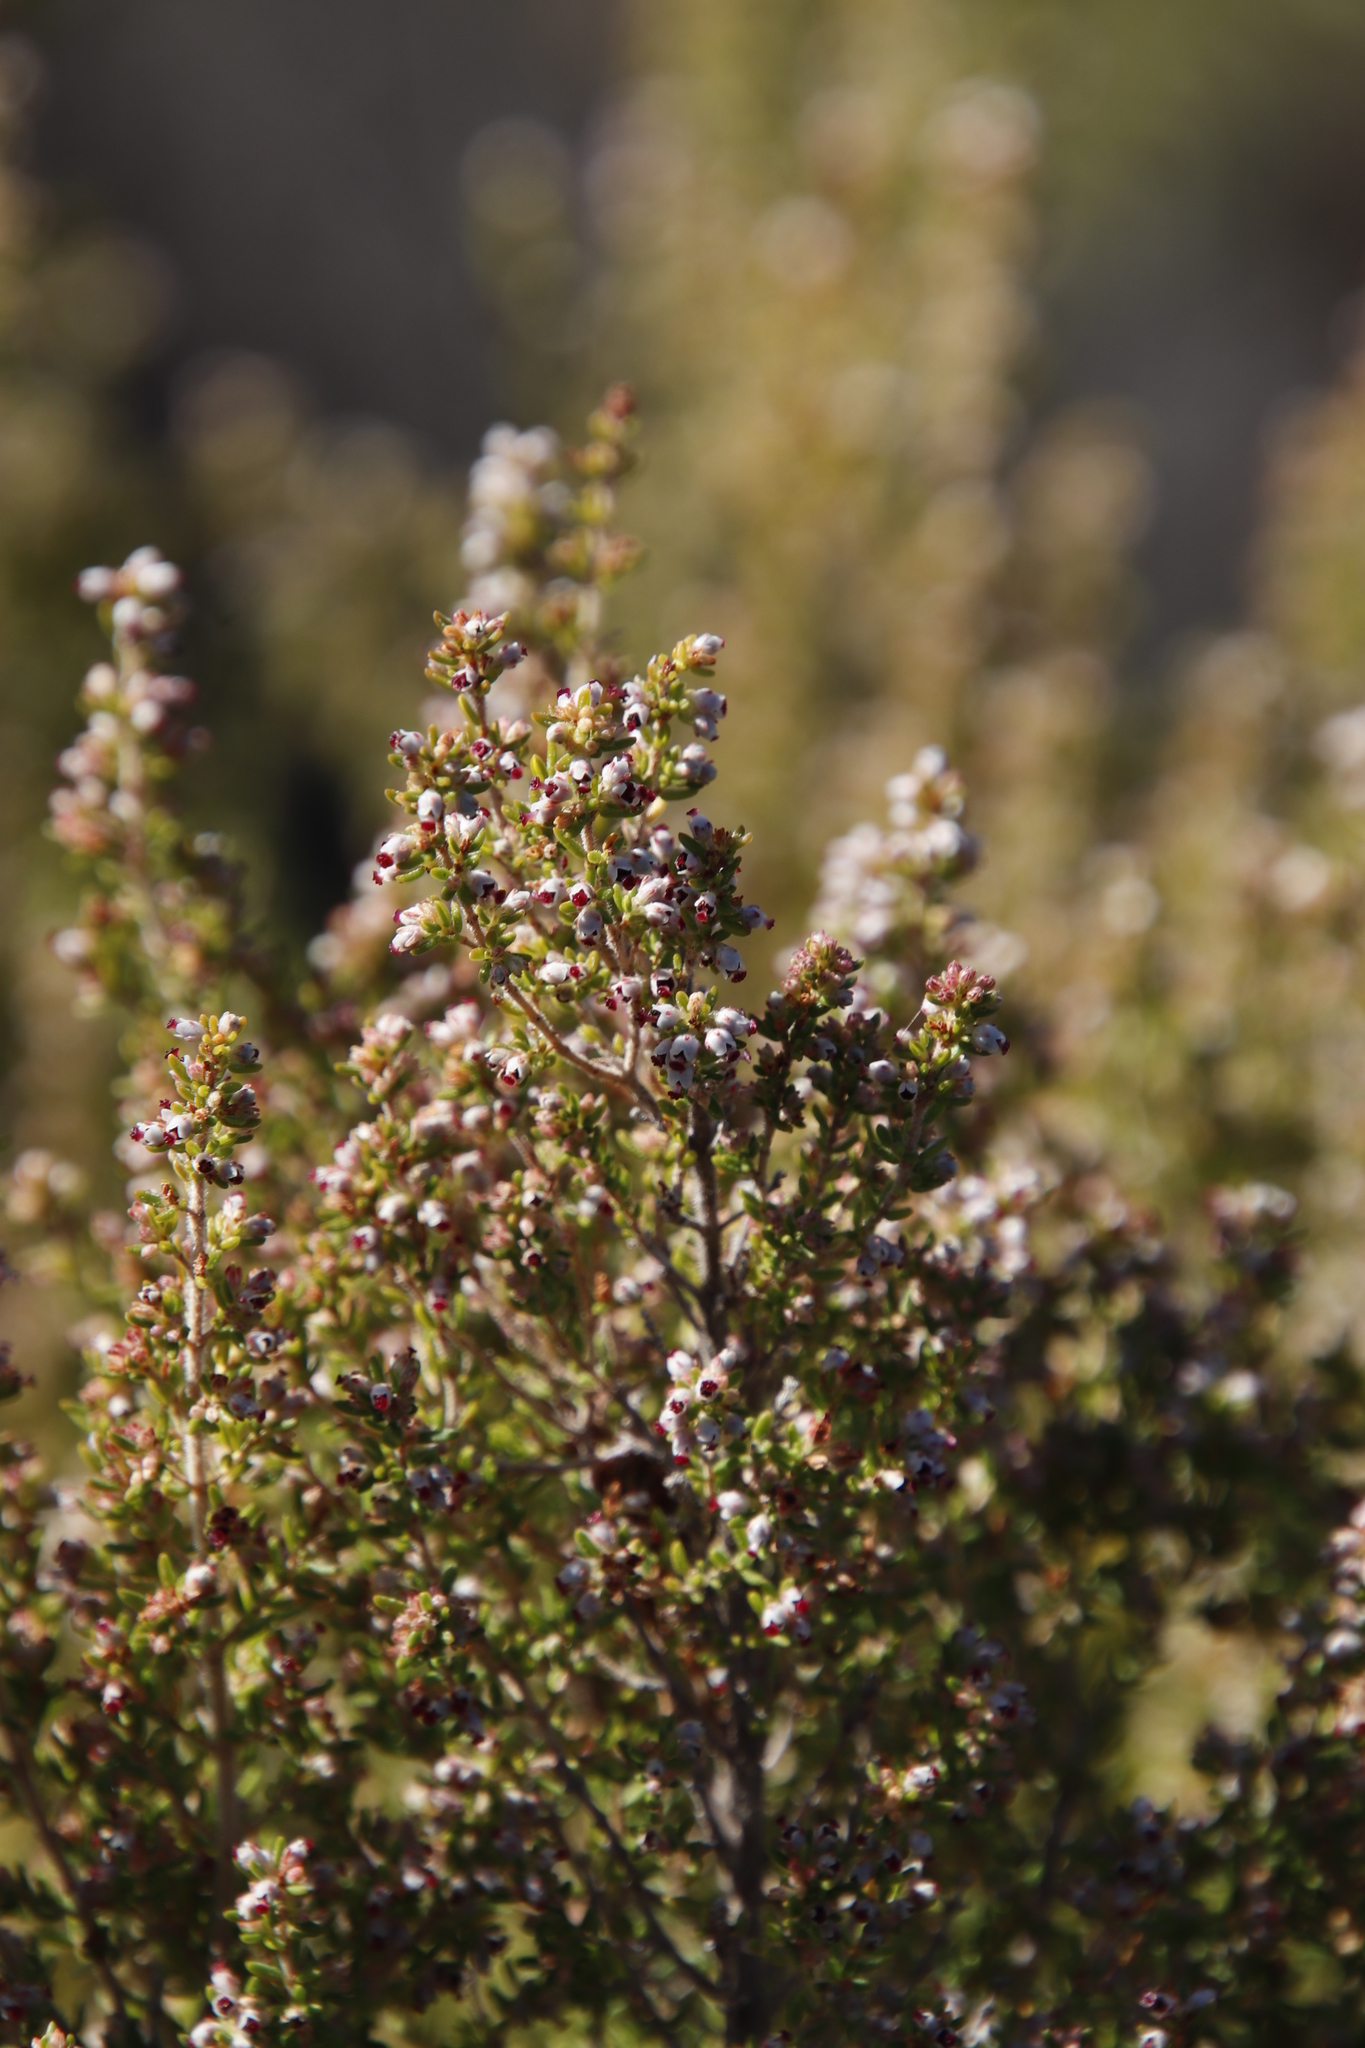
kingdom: Plantae
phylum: Tracheophyta
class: Magnoliopsida
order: Ericales
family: Ericaceae
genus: Erica
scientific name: Erica hispidula
